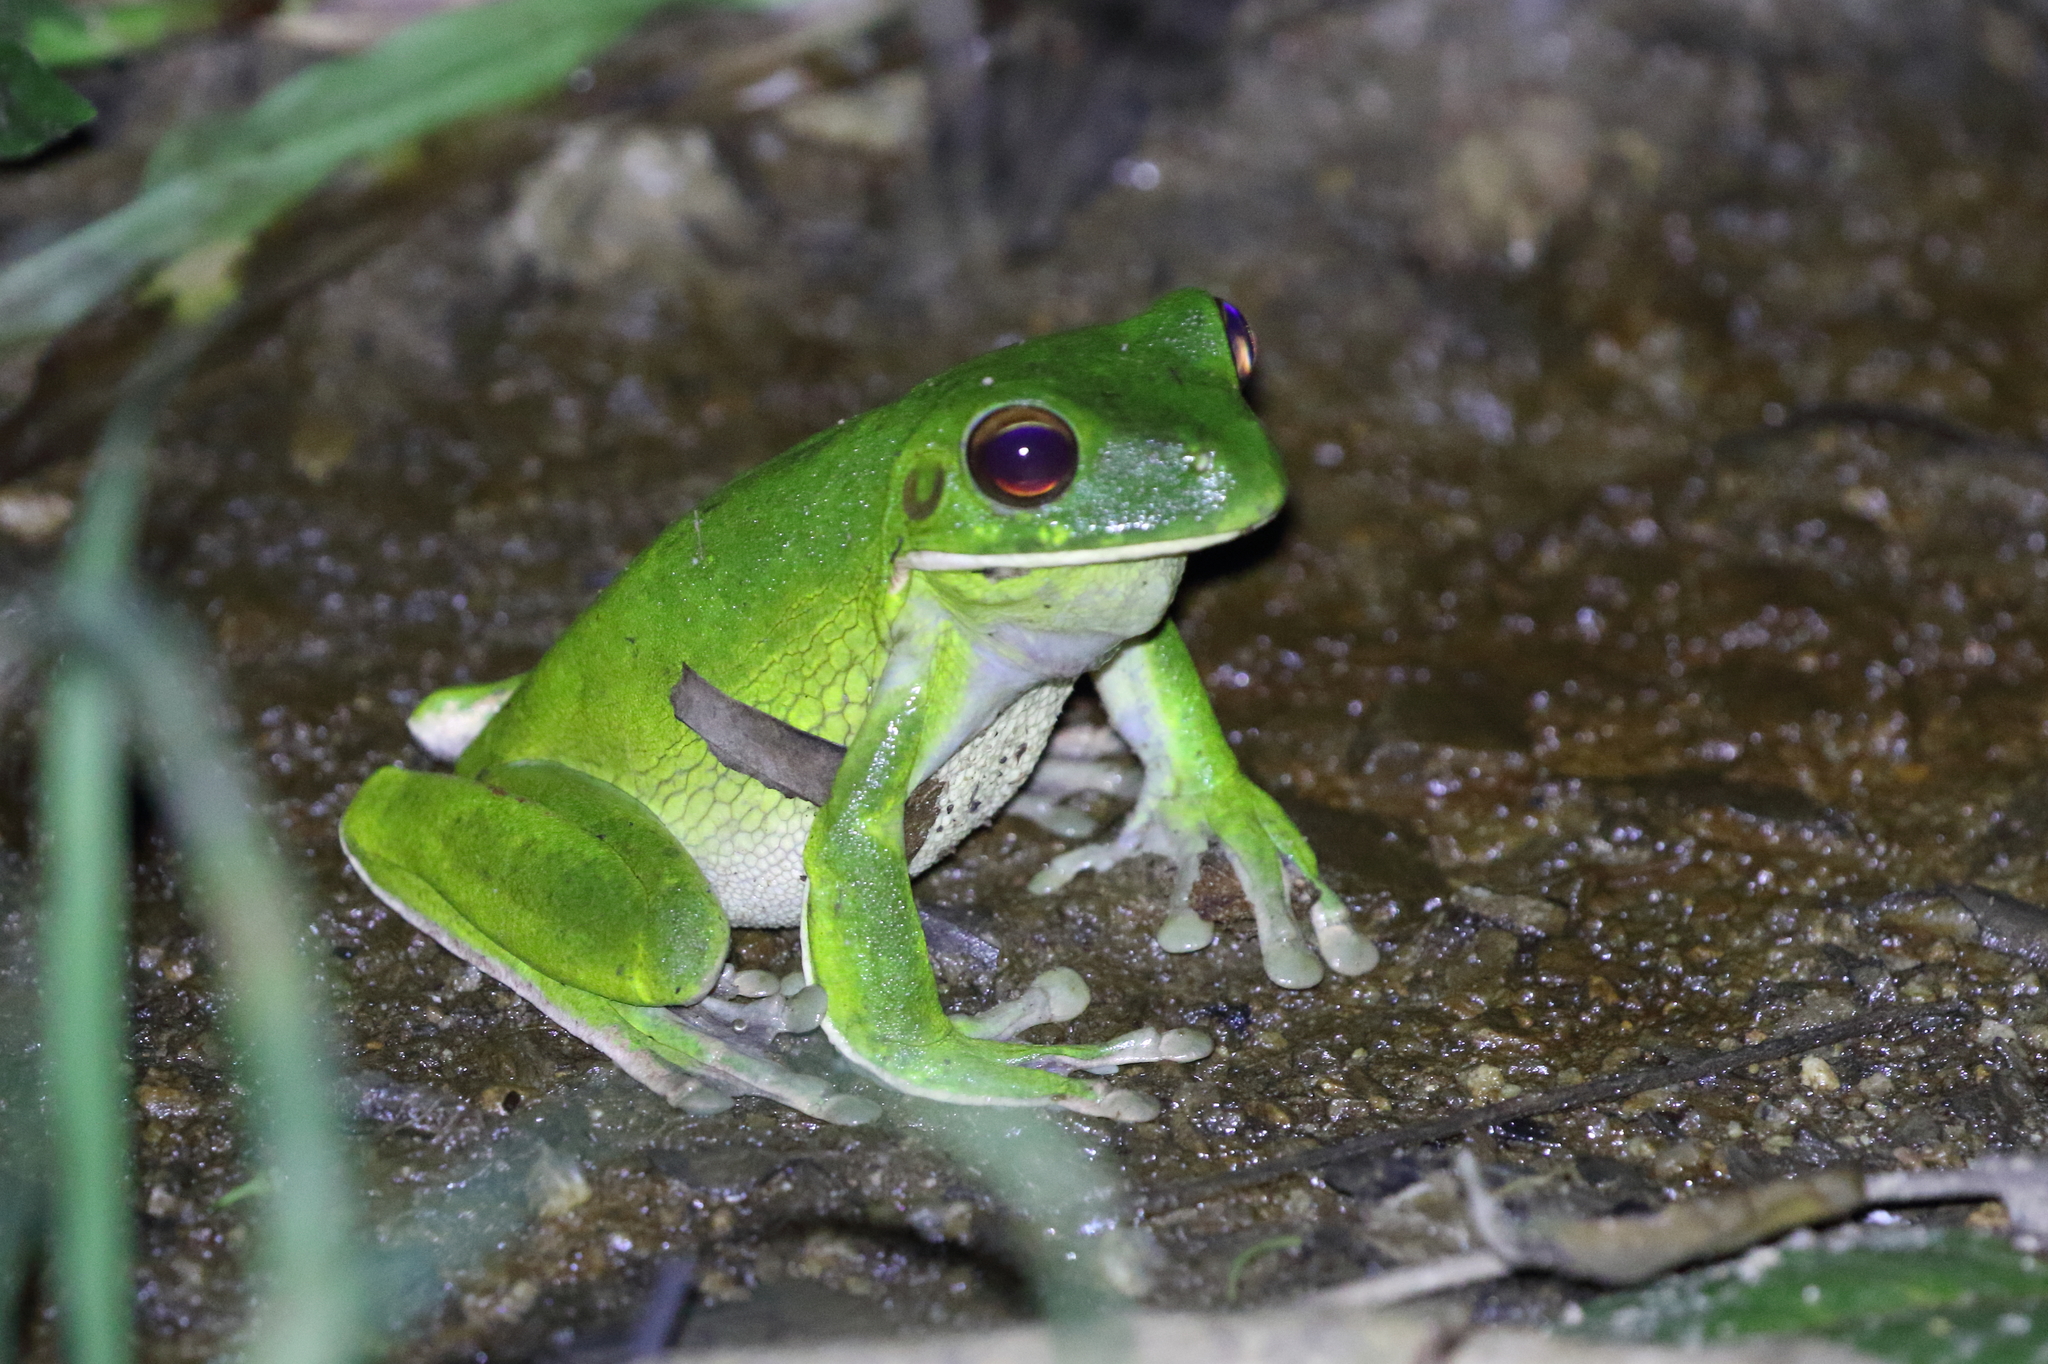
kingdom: Animalia
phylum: Chordata
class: Amphibia
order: Anura
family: Pelodryadidae
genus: Nyctimystes
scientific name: Nyctimystes infrafrenatus
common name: Australian giant treefrog
